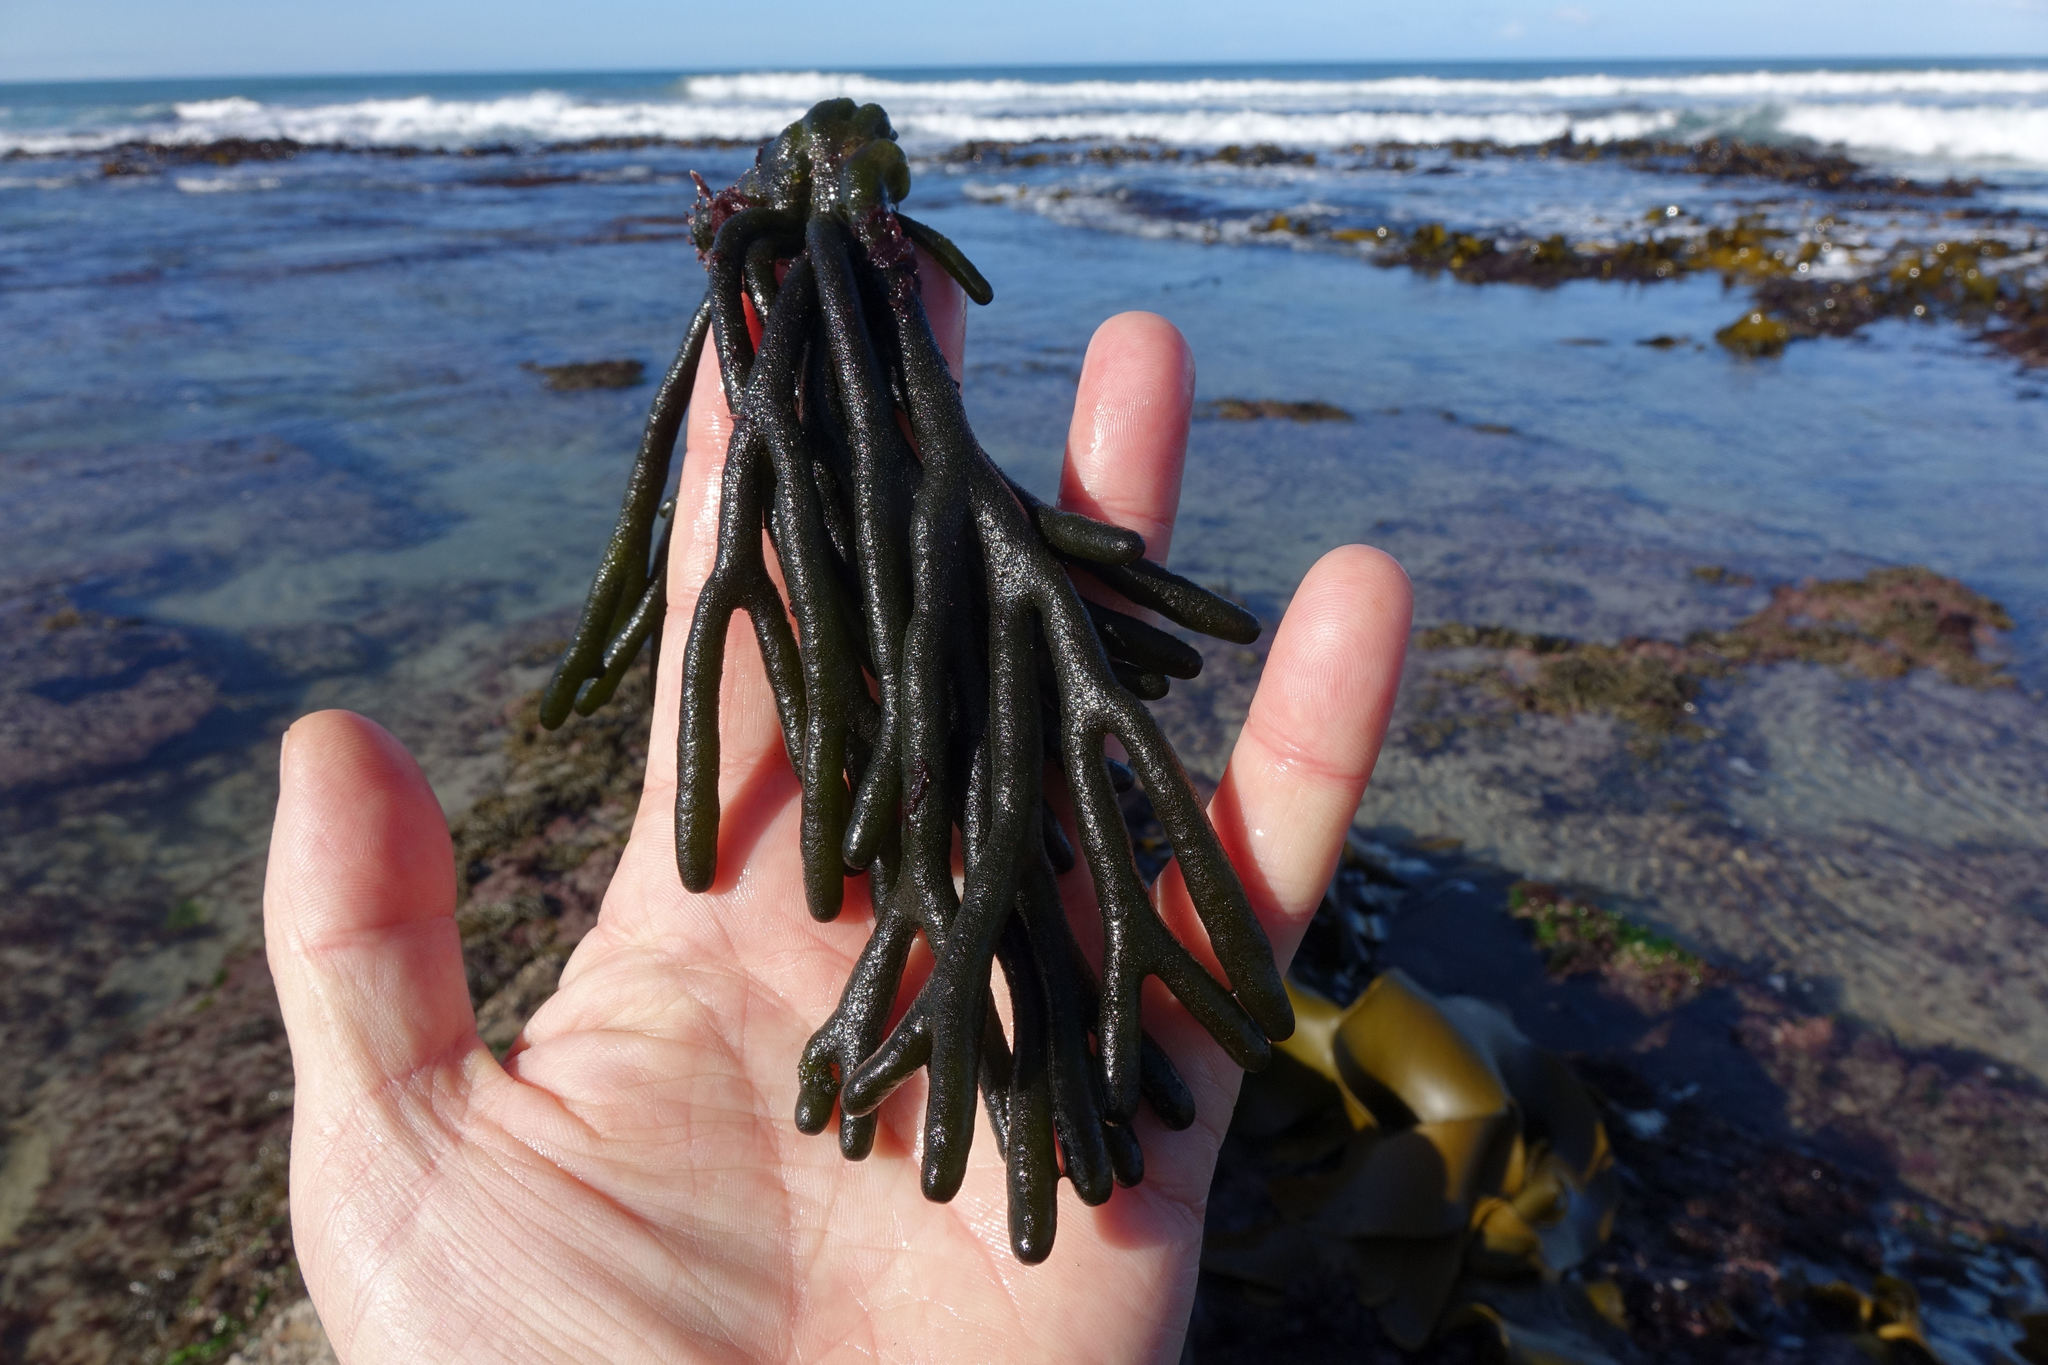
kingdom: Plantae
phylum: Chlorophyta
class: Ulvophyceae
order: Bryopsidales
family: Codiaceae
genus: Codium
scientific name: Codium fragile
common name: Dead man's fingers
